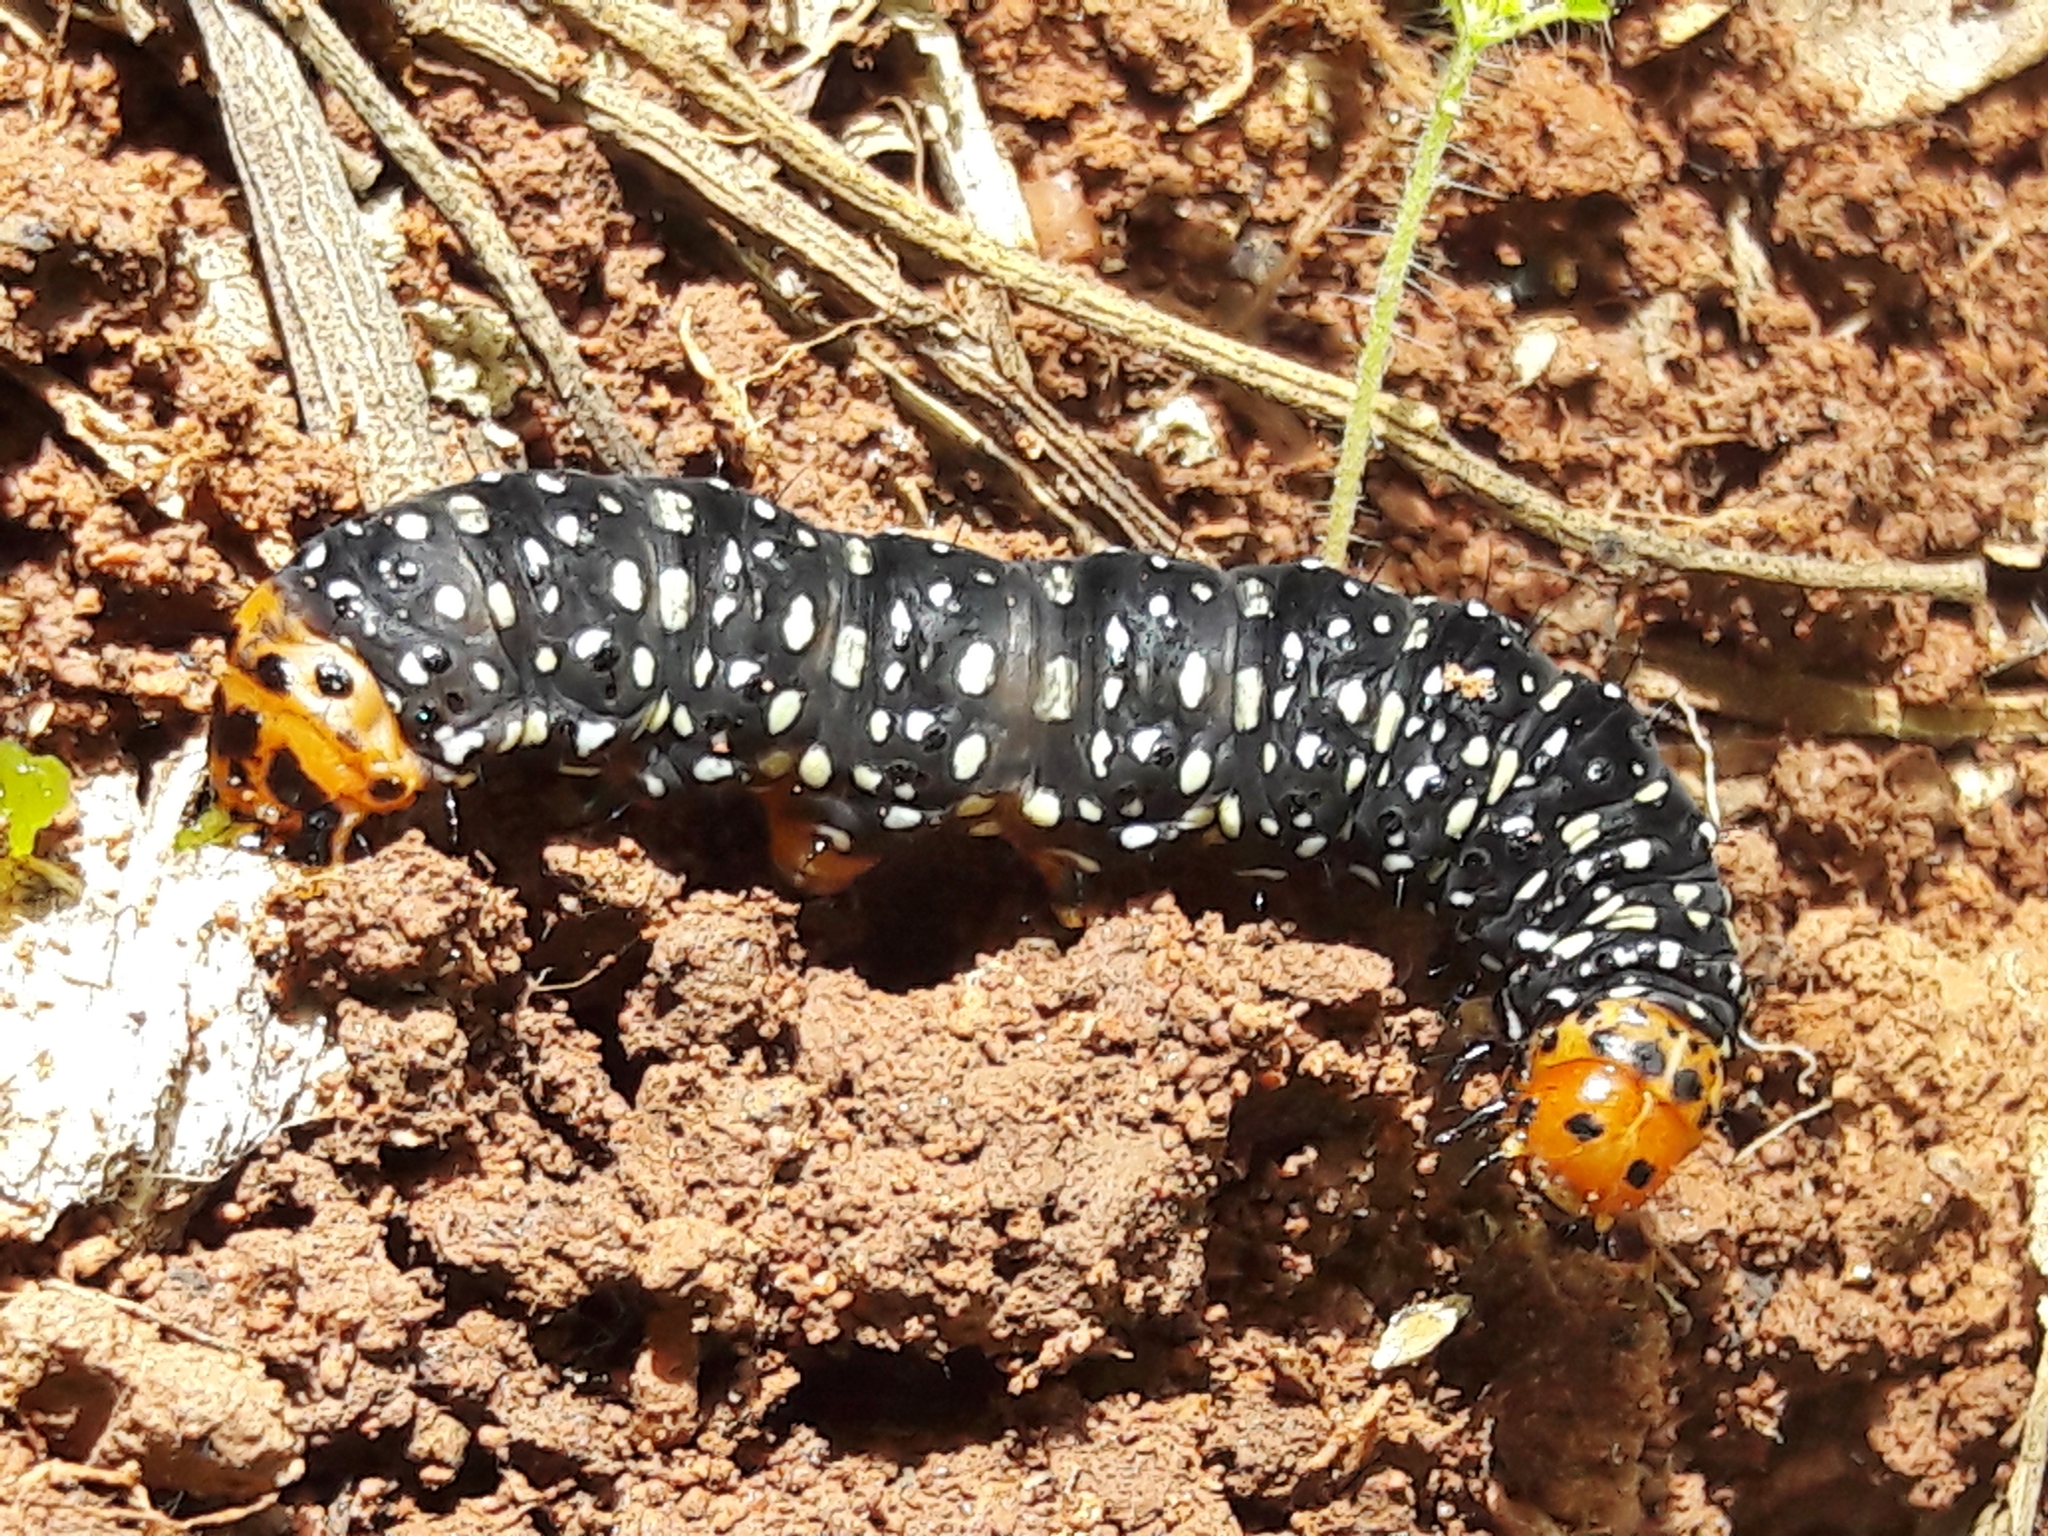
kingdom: Animalia
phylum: Arthropoda
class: Insecta
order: Lepidoptera
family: Noctuidae
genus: Xanthopastis
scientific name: Xanthopastis timais
